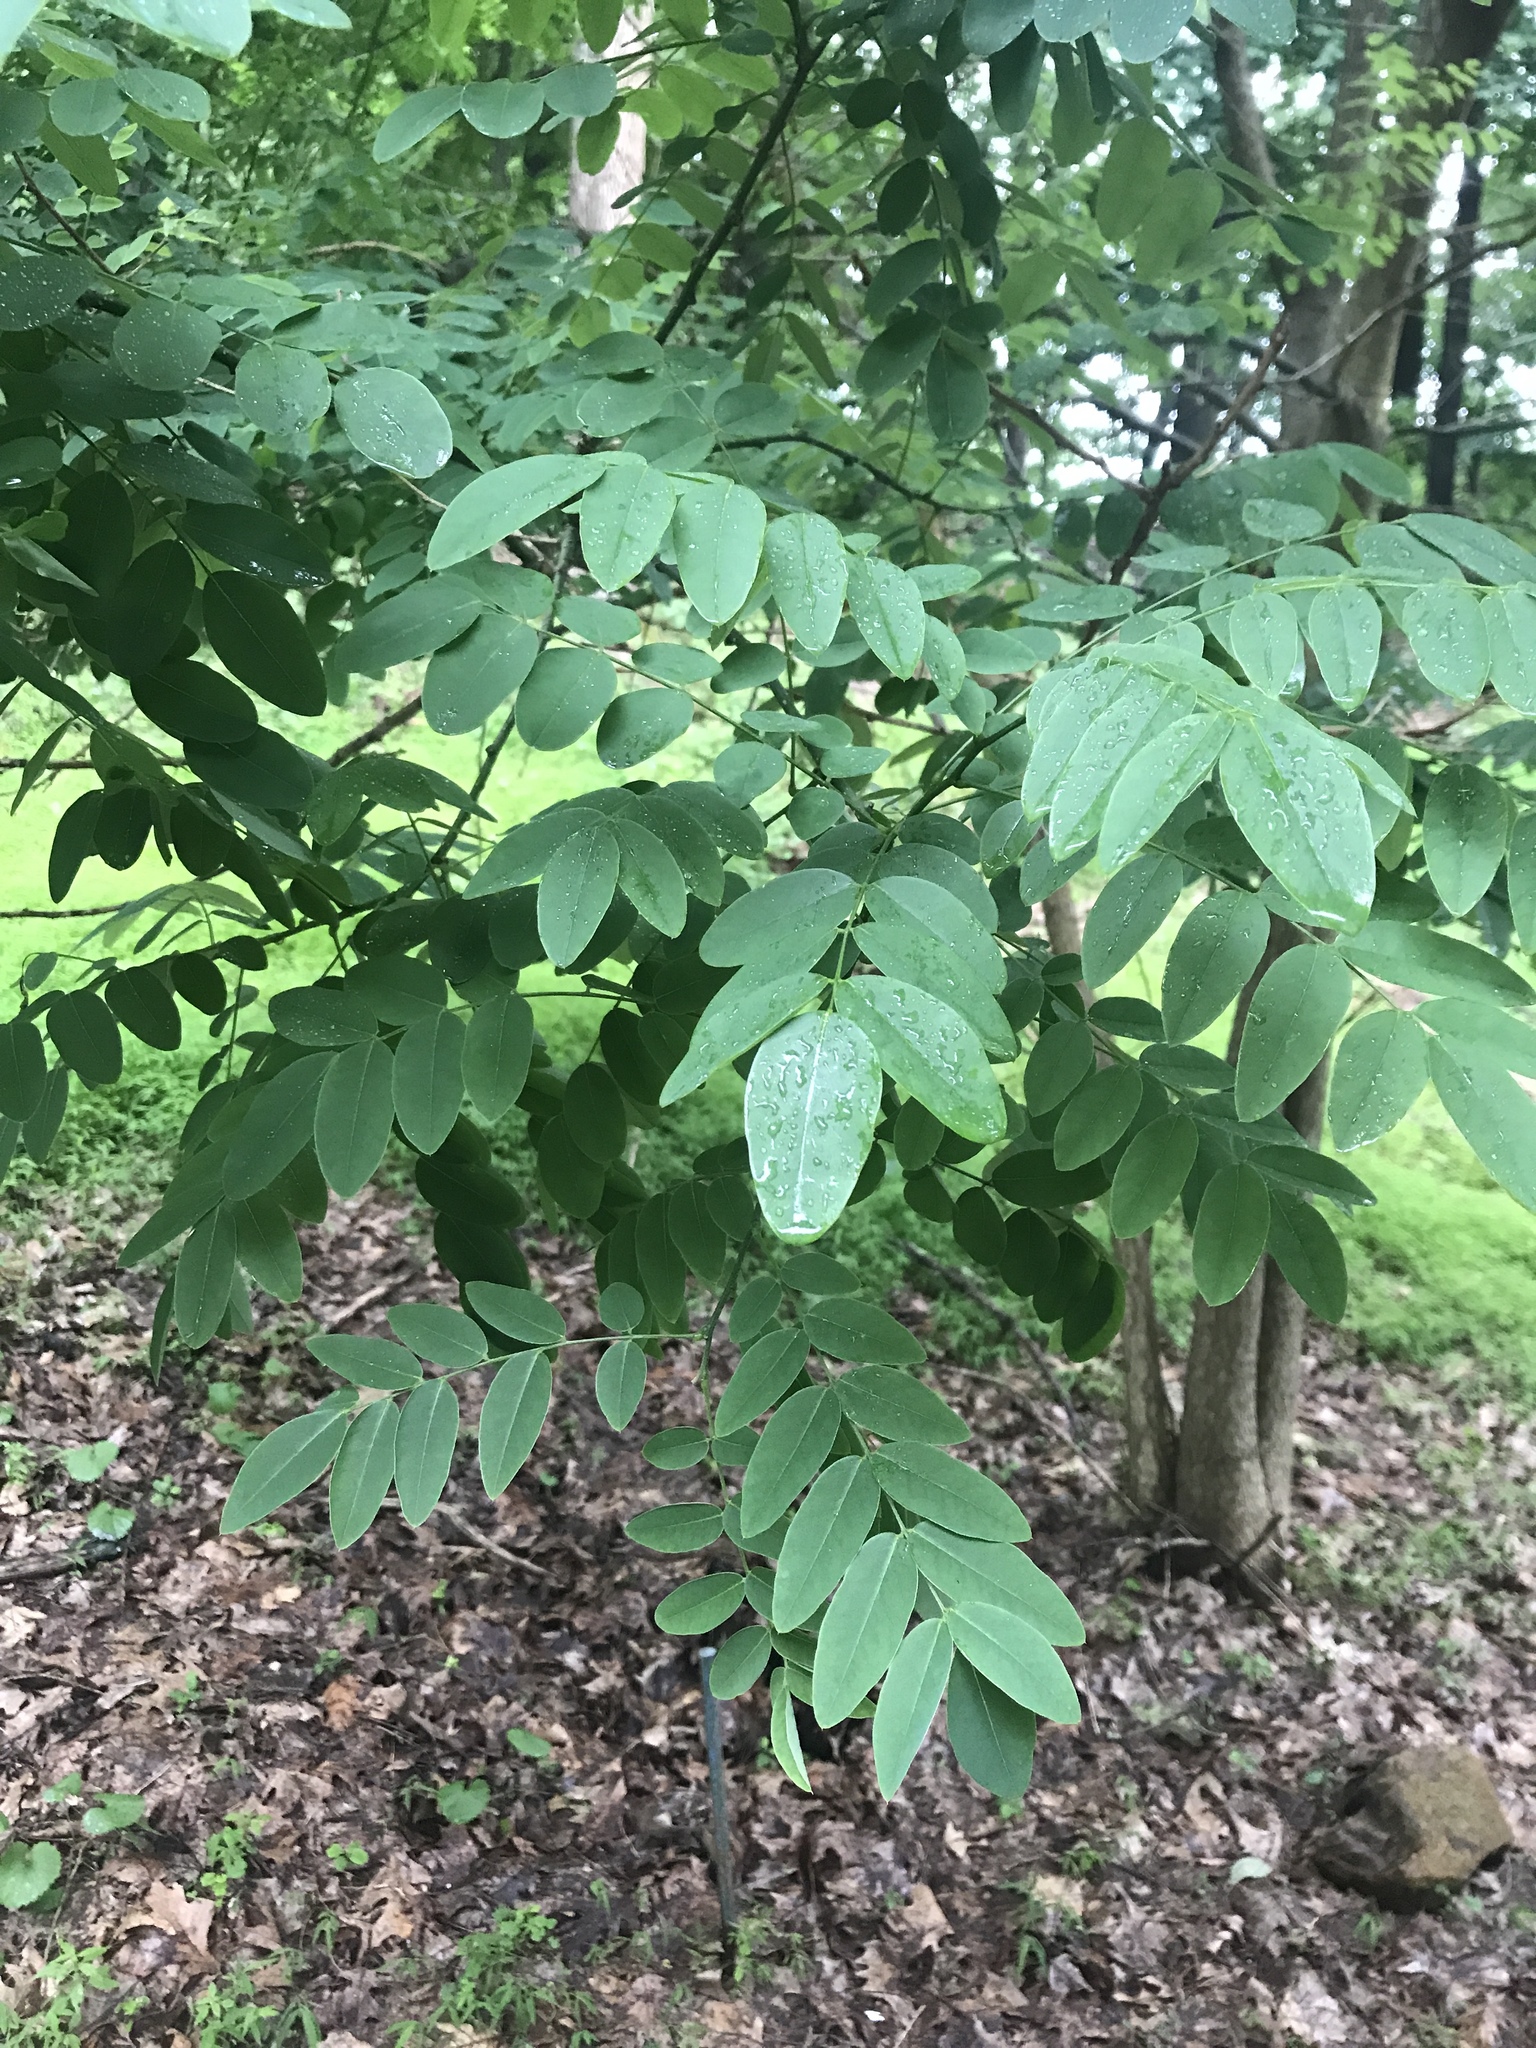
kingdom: Plantae
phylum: Tracheophyta
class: Magnoliopsida
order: Fabales
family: Fabaceae
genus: Robinia
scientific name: Robinia pseudoacacia
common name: Black locust
